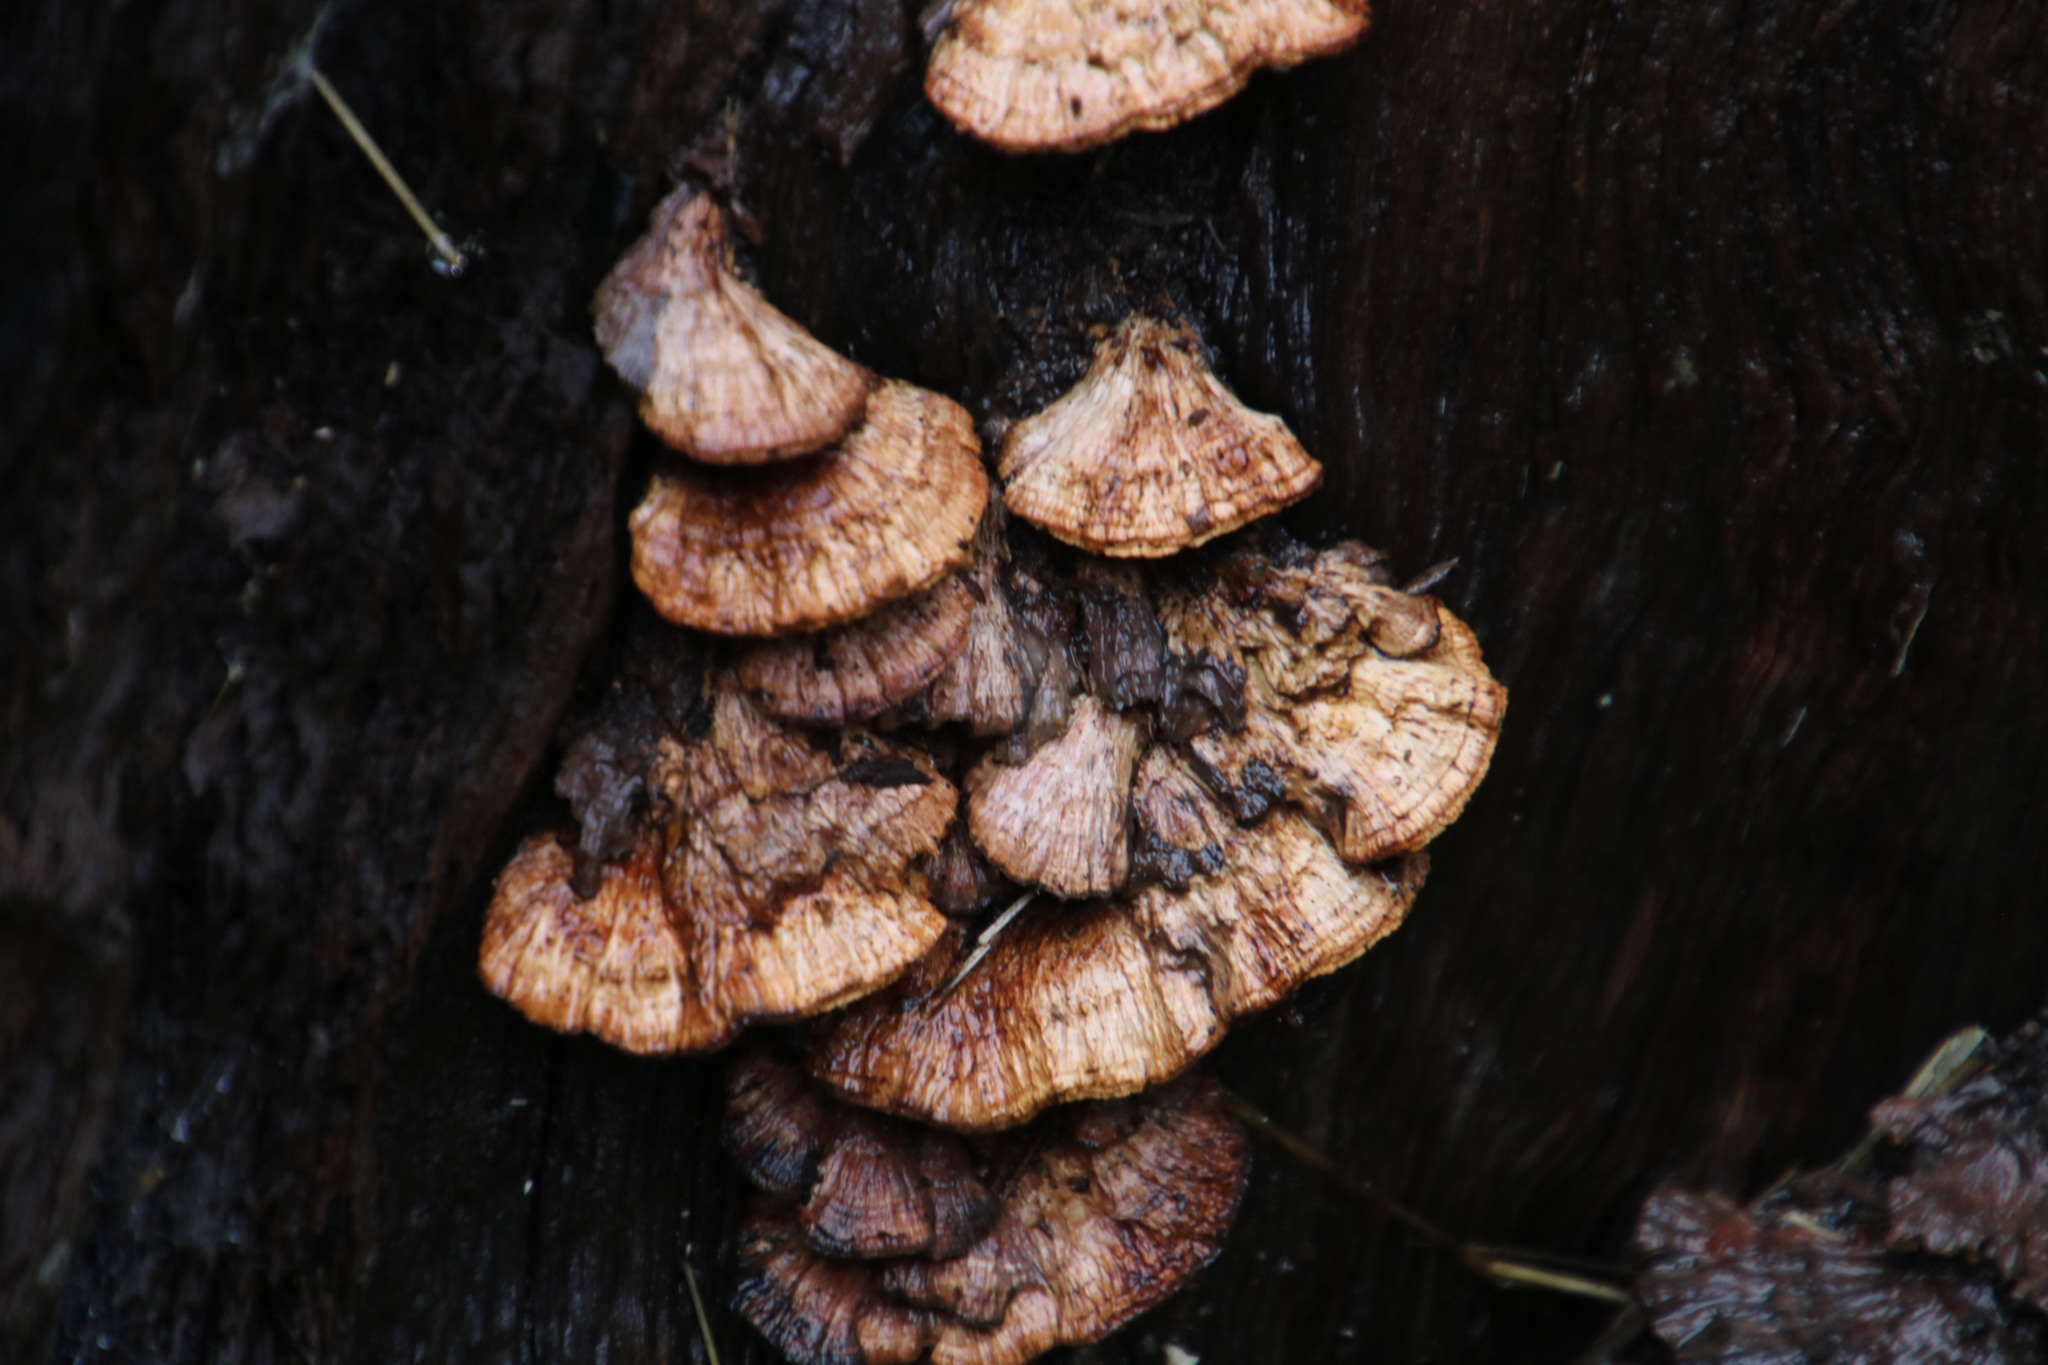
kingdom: Fungi
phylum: Basidiomycota
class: Agaricomycetes
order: Polyporales
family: Polyporaceae
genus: Daedaleopsis
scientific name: Daedaleopsis confragosa
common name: Blushing bracket
